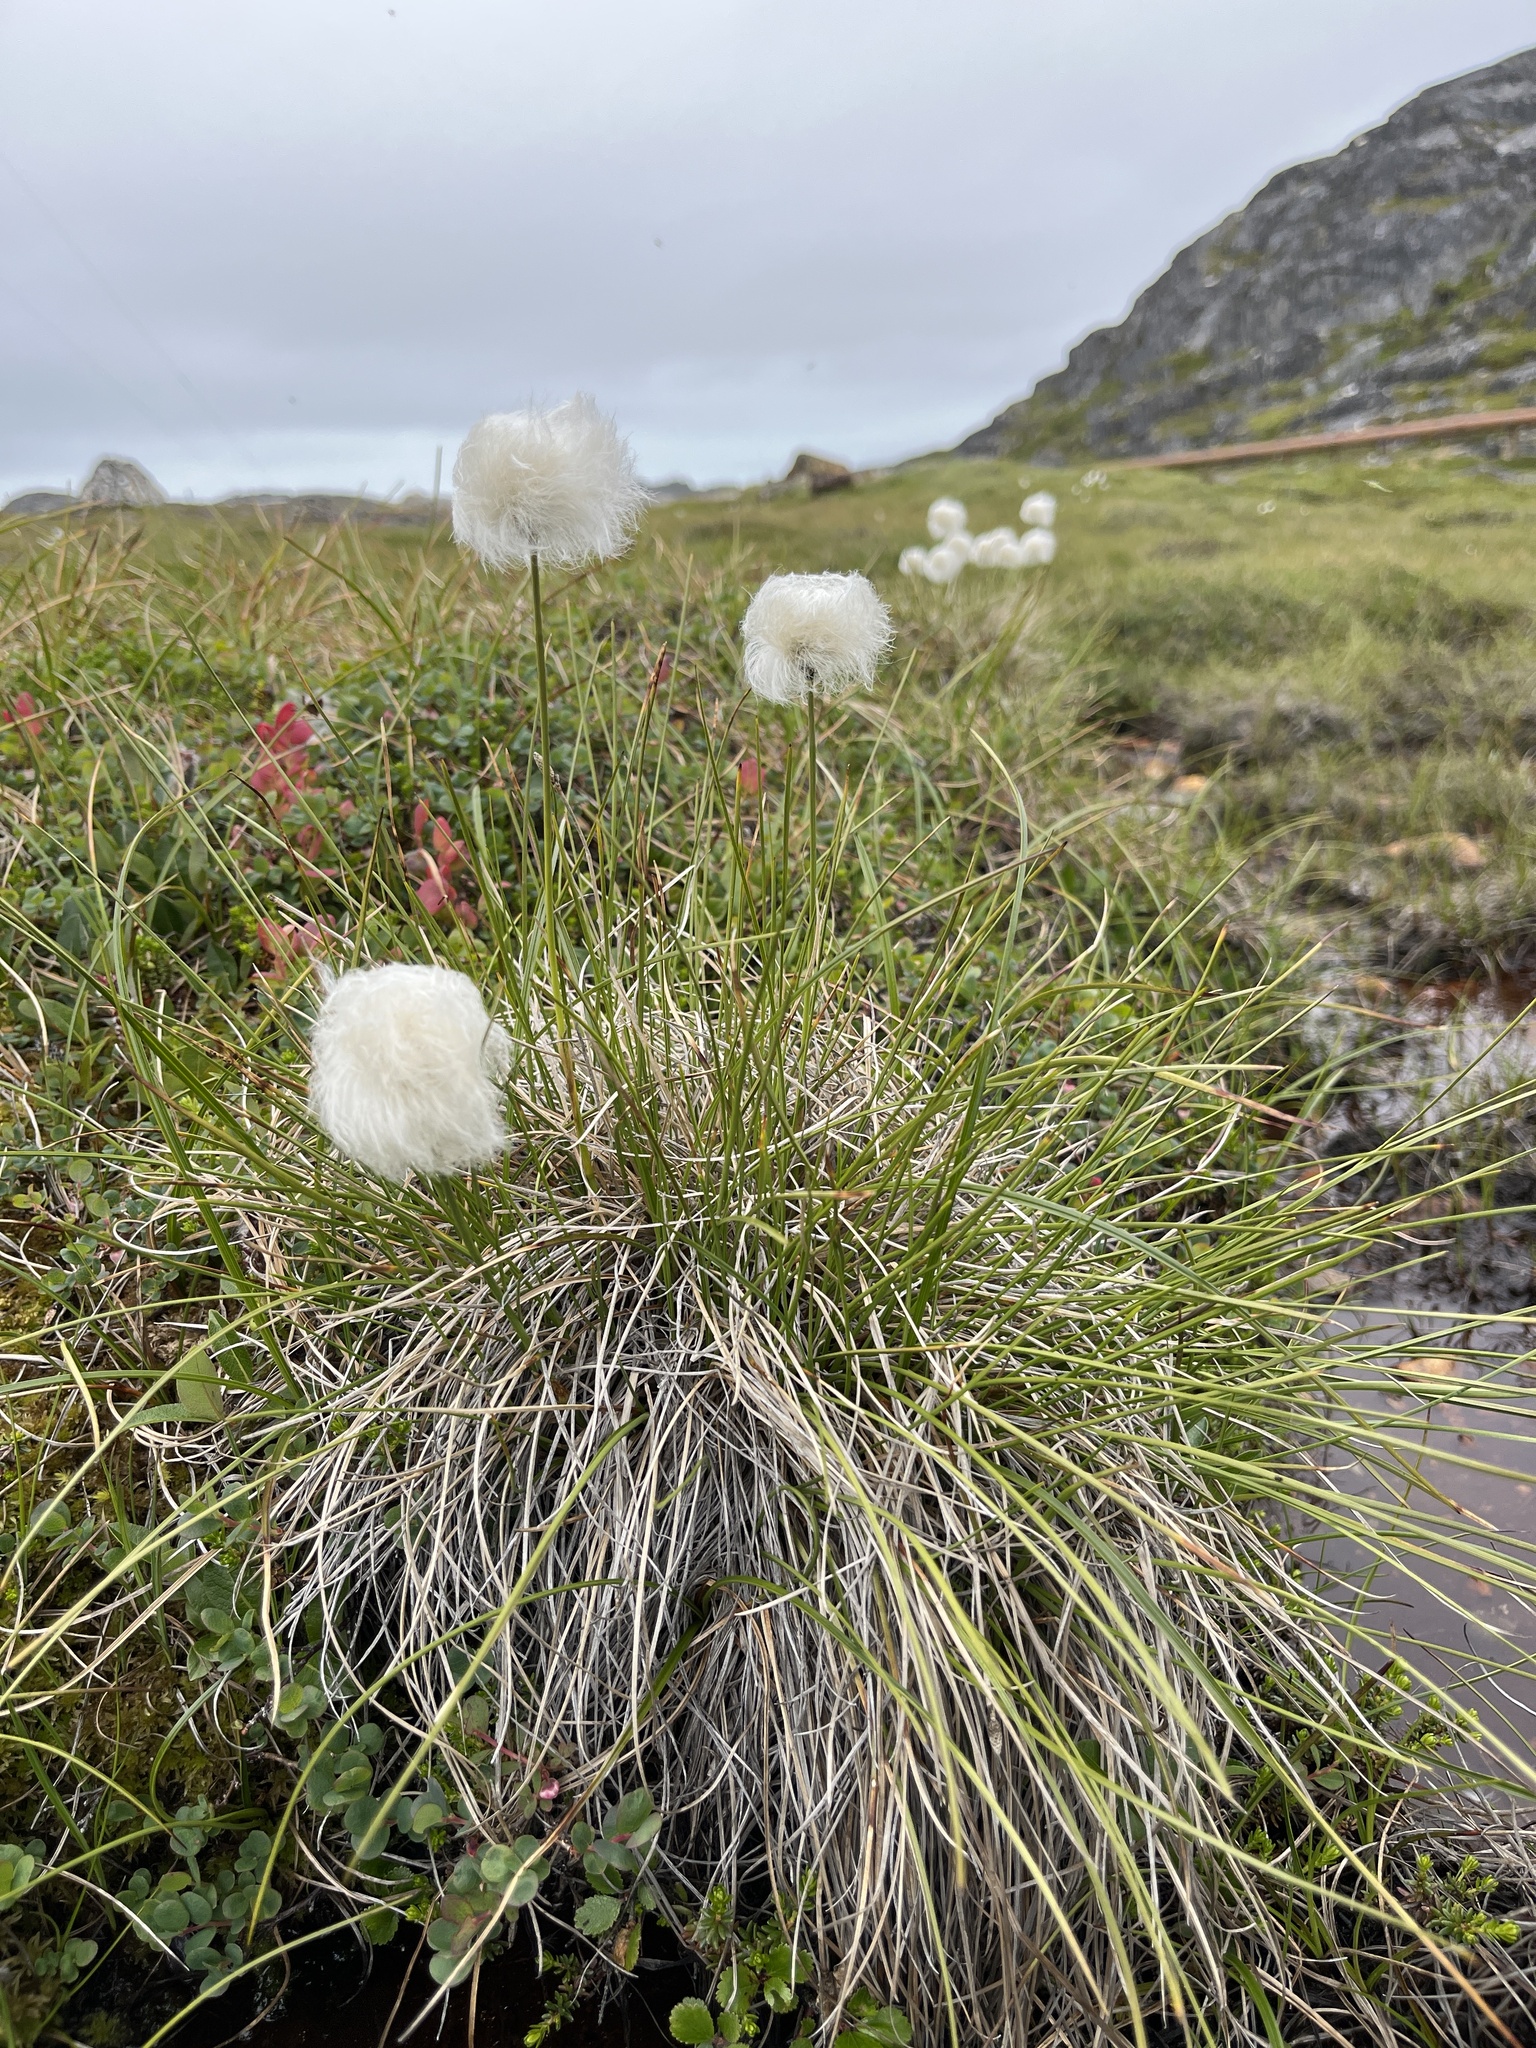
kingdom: Plantae
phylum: Tracheophyta
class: Liliopsida
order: Poales
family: Cyperaceae
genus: Eriophorum
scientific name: Eriophorum vaginatum
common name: Hare's-tail cottongrass
